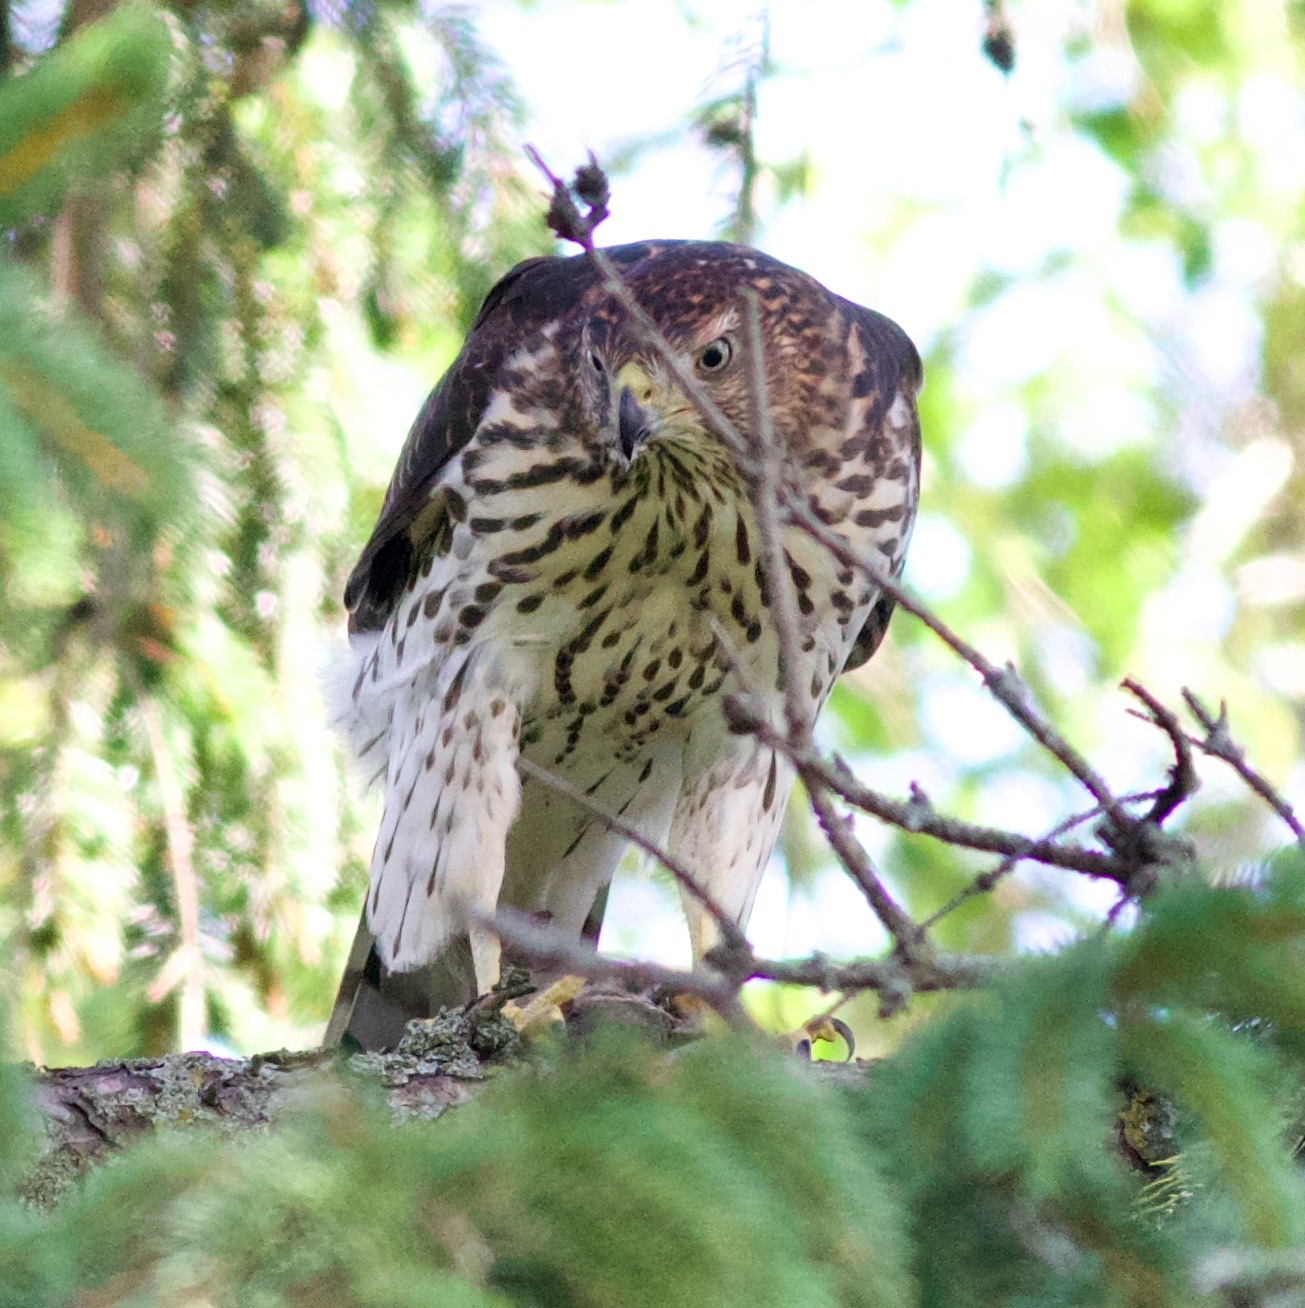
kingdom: Animalia
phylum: Chordata
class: Aves
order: Accipitriformes
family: Accipitridae
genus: Accipiter
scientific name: Accipiter cooperii
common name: Cooper's hawk
